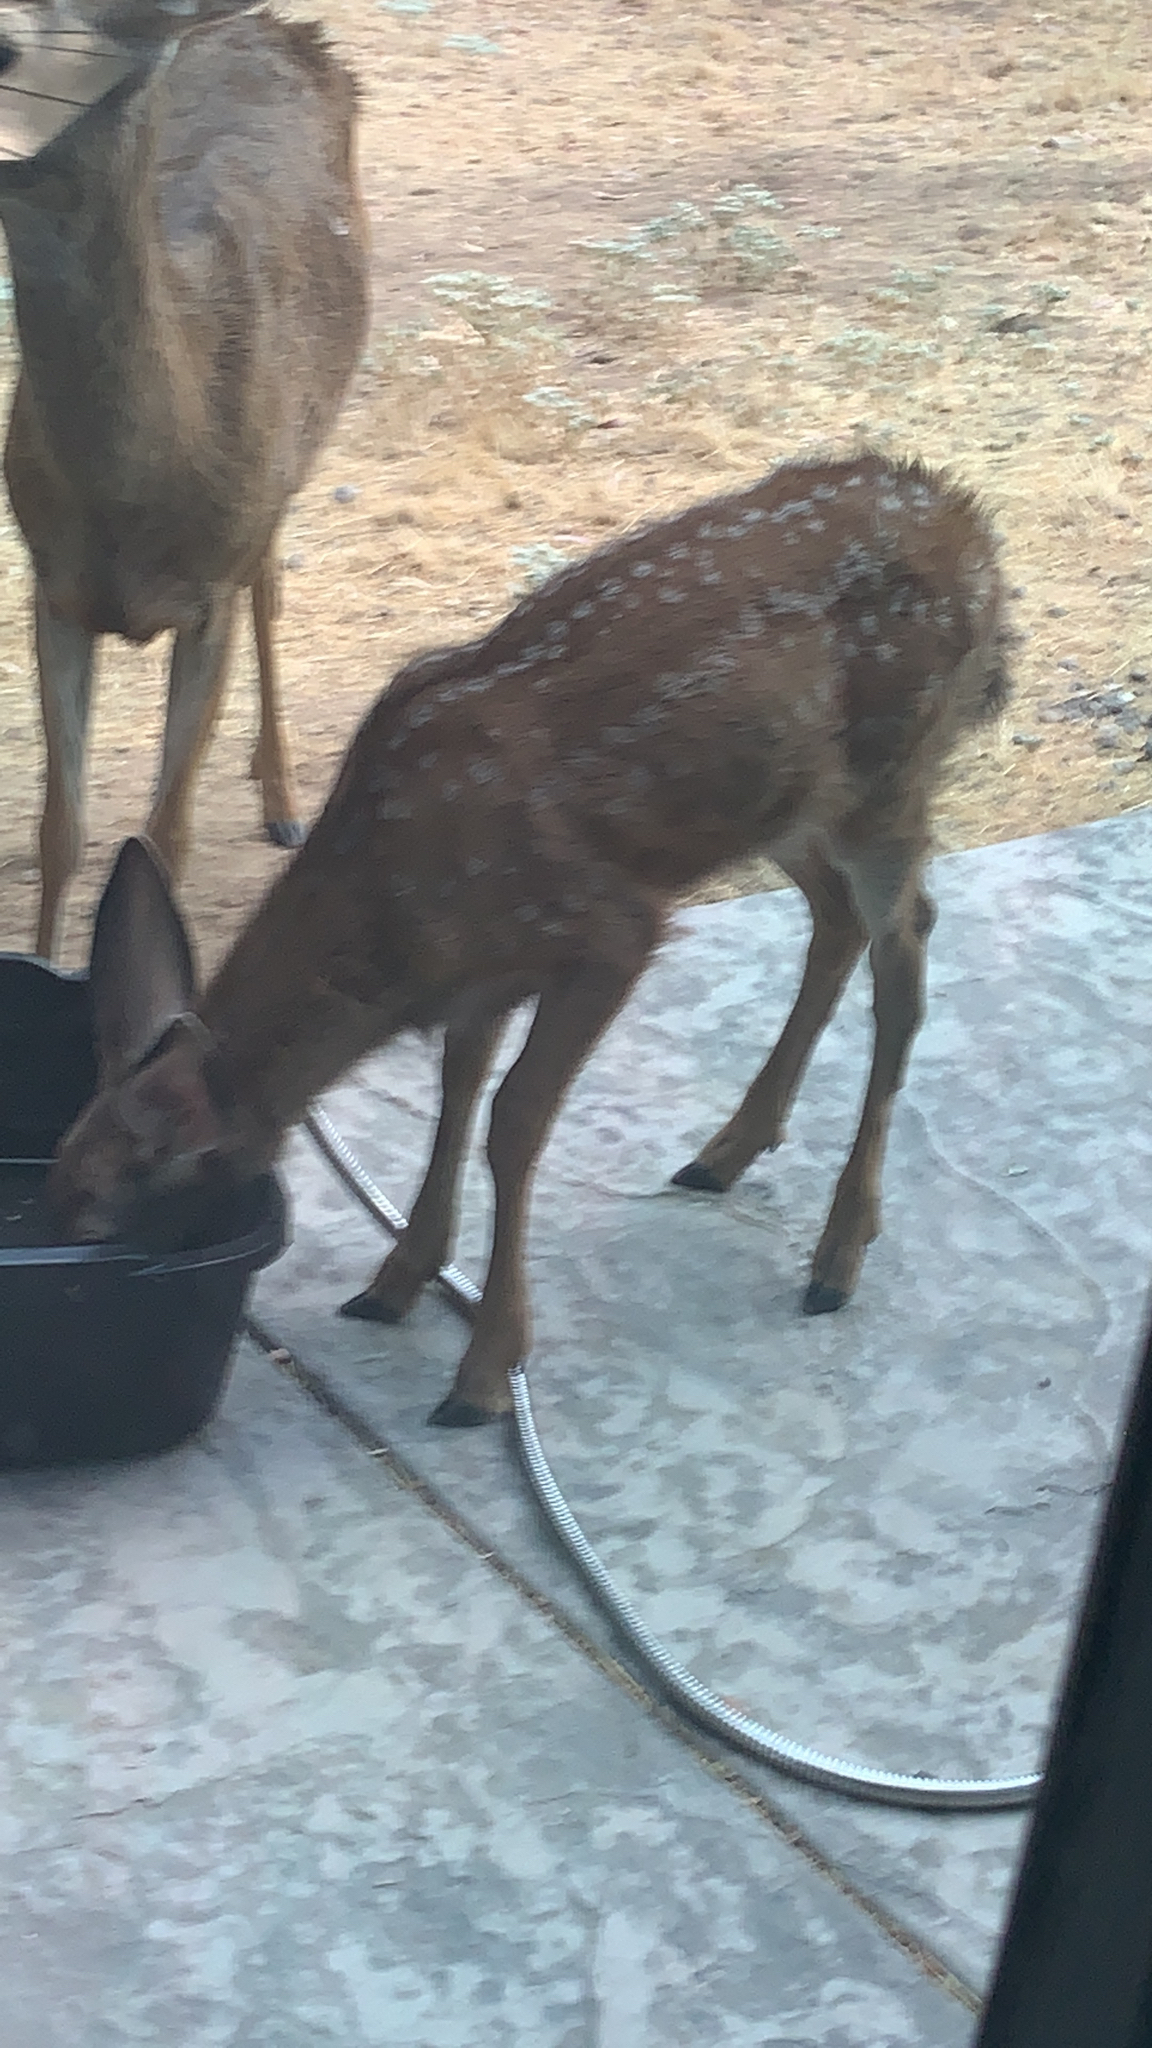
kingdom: Animalia
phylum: Chordata
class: Mammalia
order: Artiodactyla
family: Cervidae
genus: Odocoileus
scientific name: Odocoileus hemionus
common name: Mule deer
